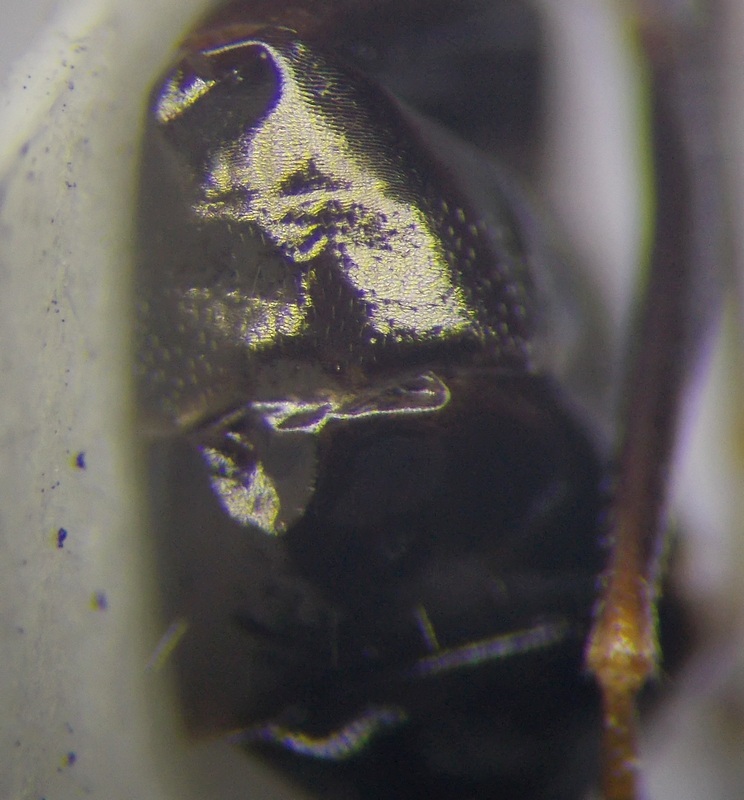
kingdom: Animalia
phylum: Arthropoda
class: Insecta
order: Hymenoptera
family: Formicidae
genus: Cataglyphis
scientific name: Cataglyphis aenescens
